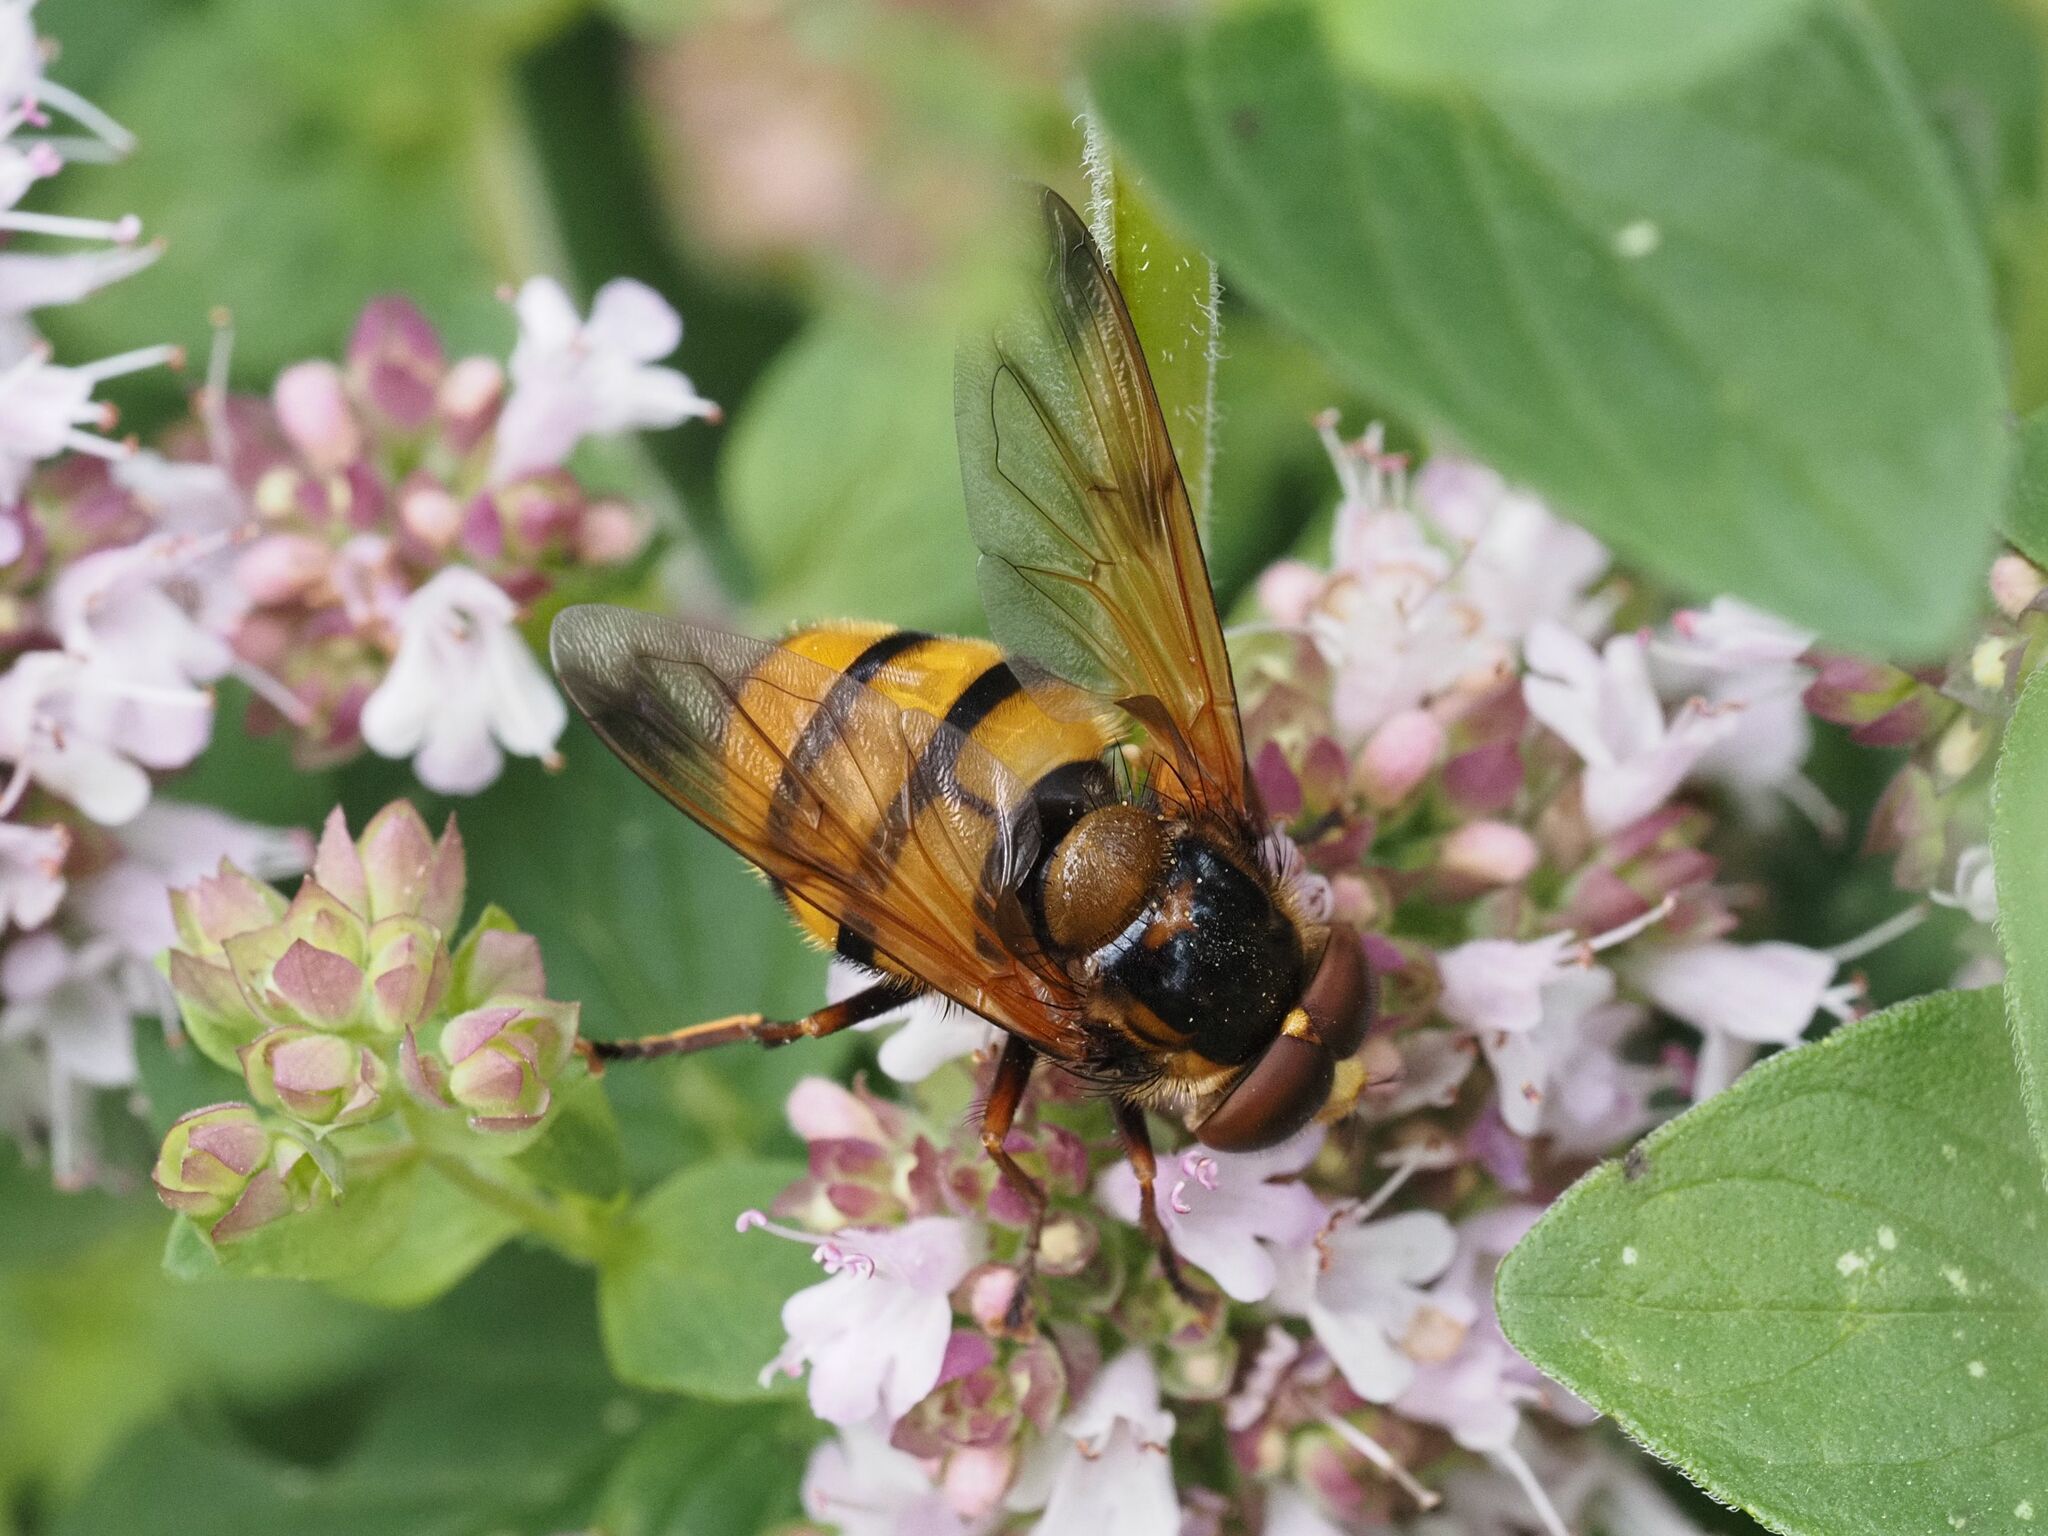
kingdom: Animalia
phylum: Arthropoda
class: Insecta
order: Diptera
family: Syrphidae
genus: Volucella
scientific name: Volucella inanis
